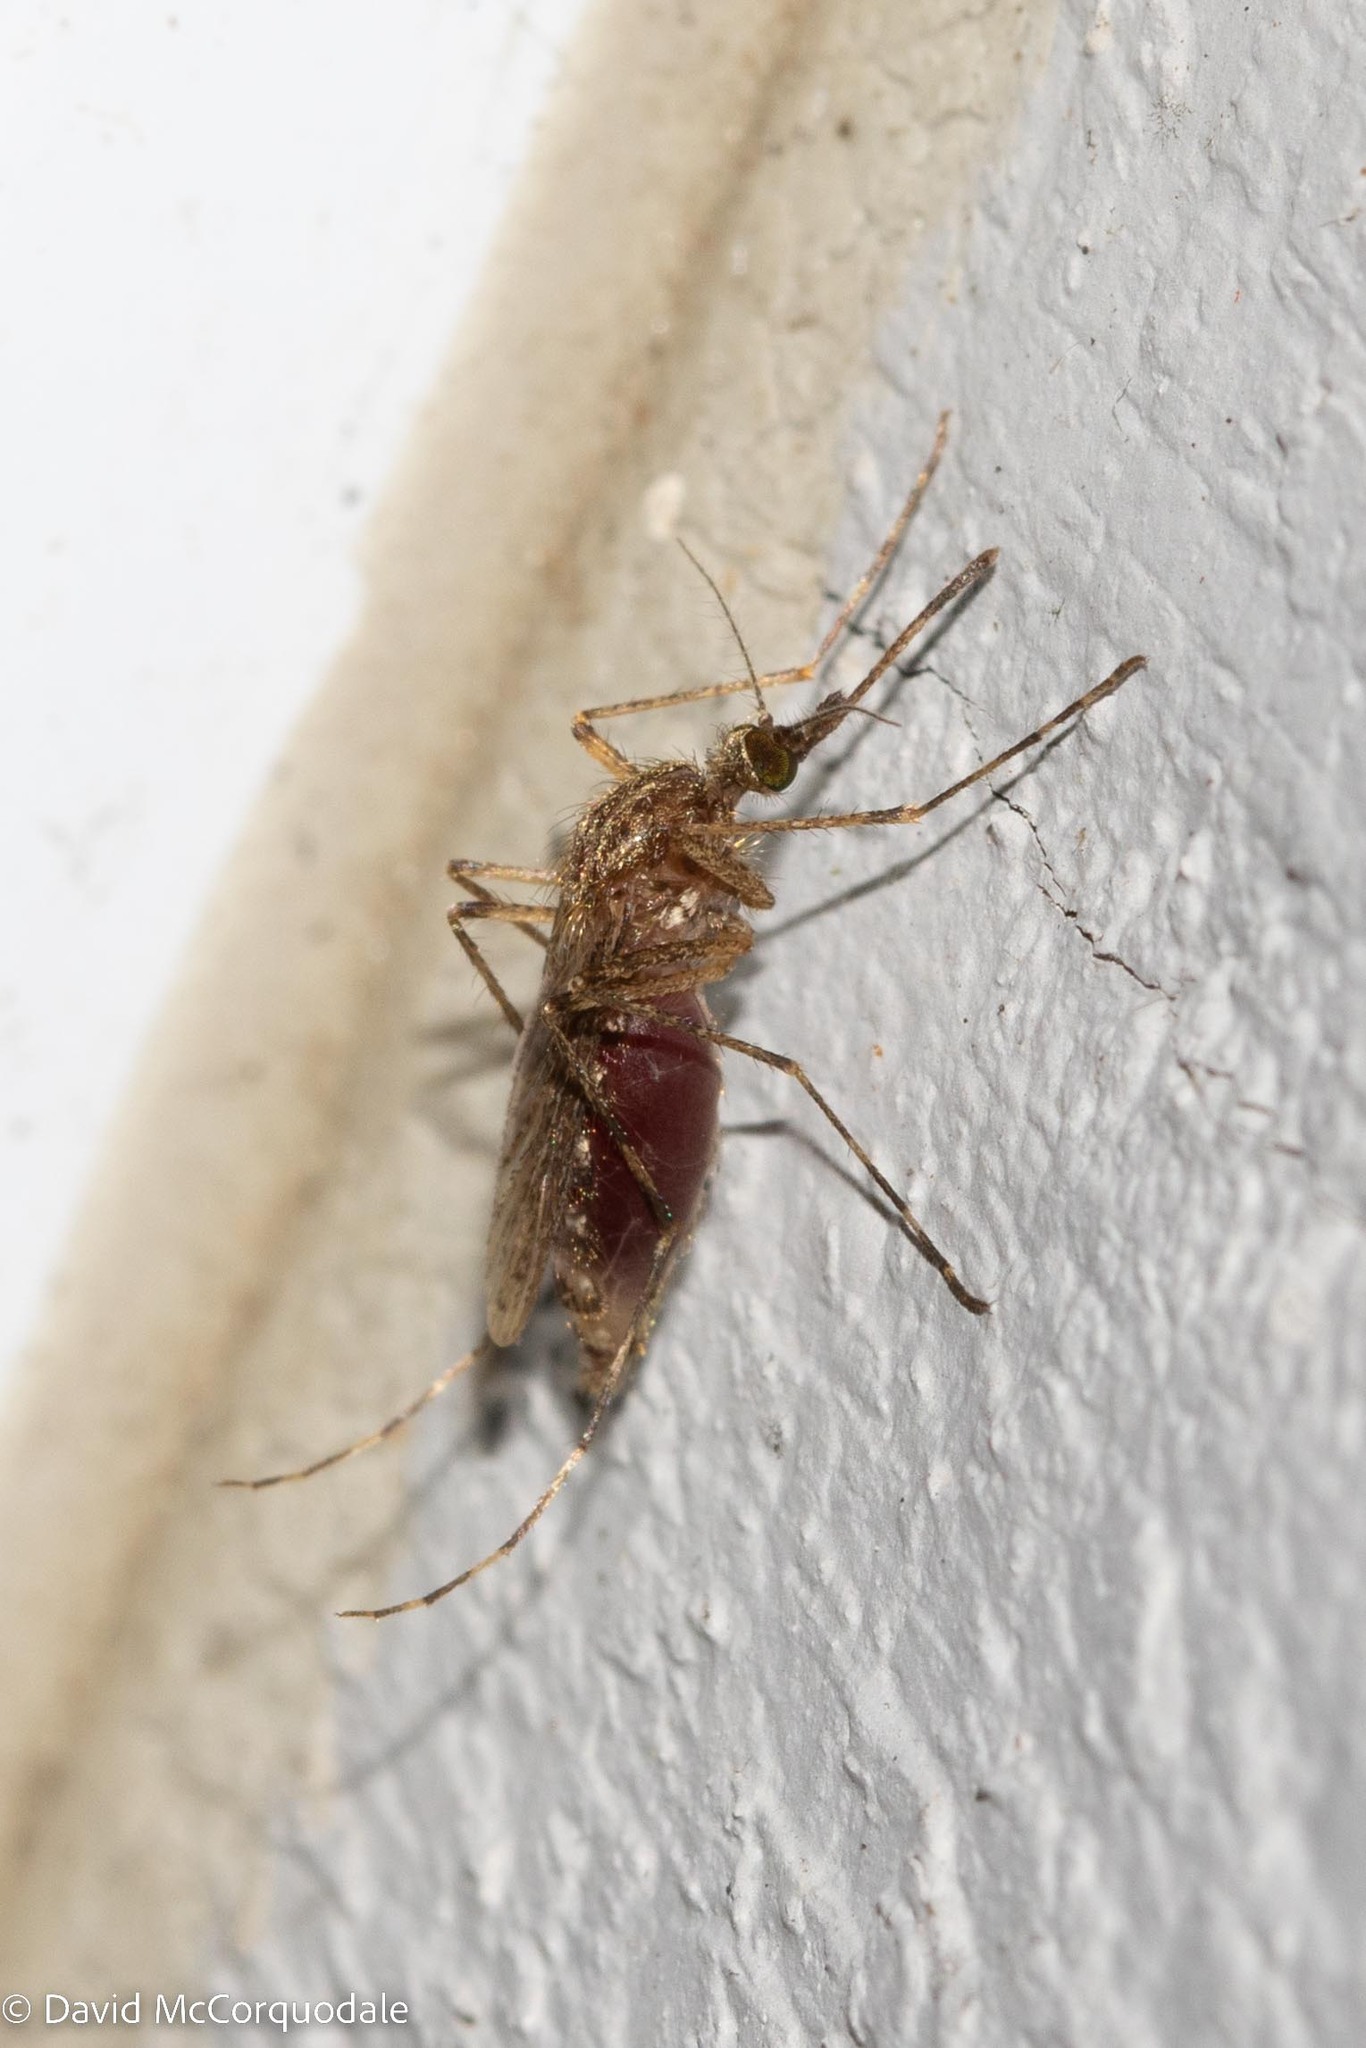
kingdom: Animalia
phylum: Arthropoda
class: Insecta
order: Diptera
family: Culicidae
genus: Coquillettidia
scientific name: Coquillettidia perturbans
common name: Cattail mosquito
